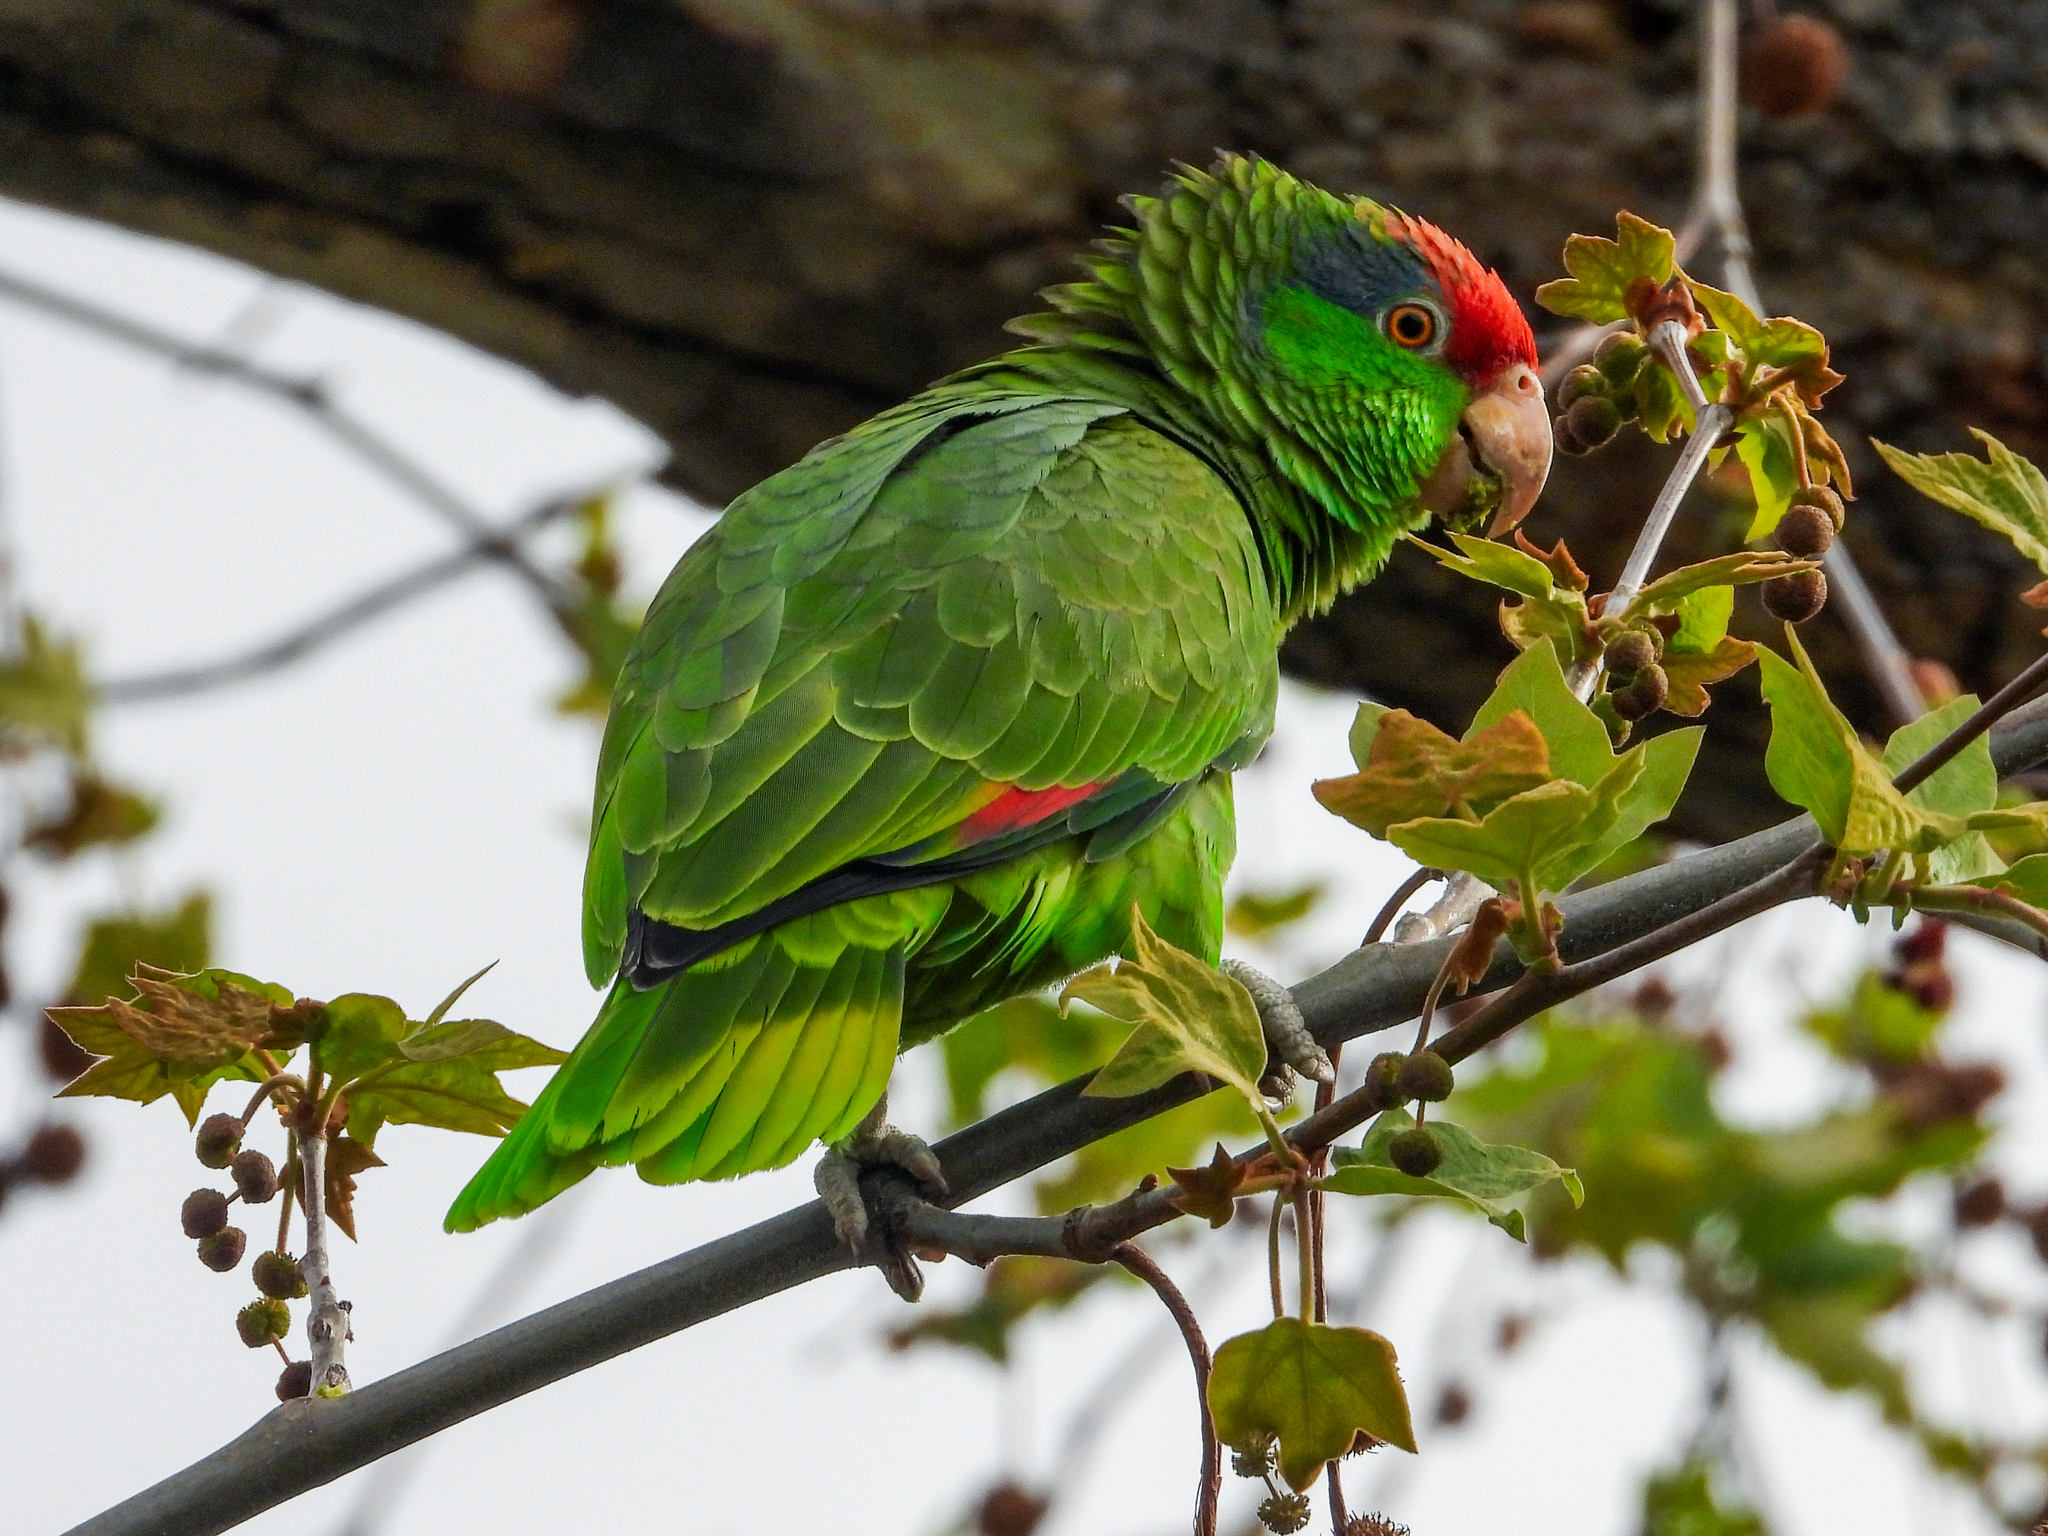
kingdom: Animalia
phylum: Chordata
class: Aves
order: Psittaciformes
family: Psittacidae
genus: Amazona
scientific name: Amazona viridigenalis
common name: Red-crowned amazon
